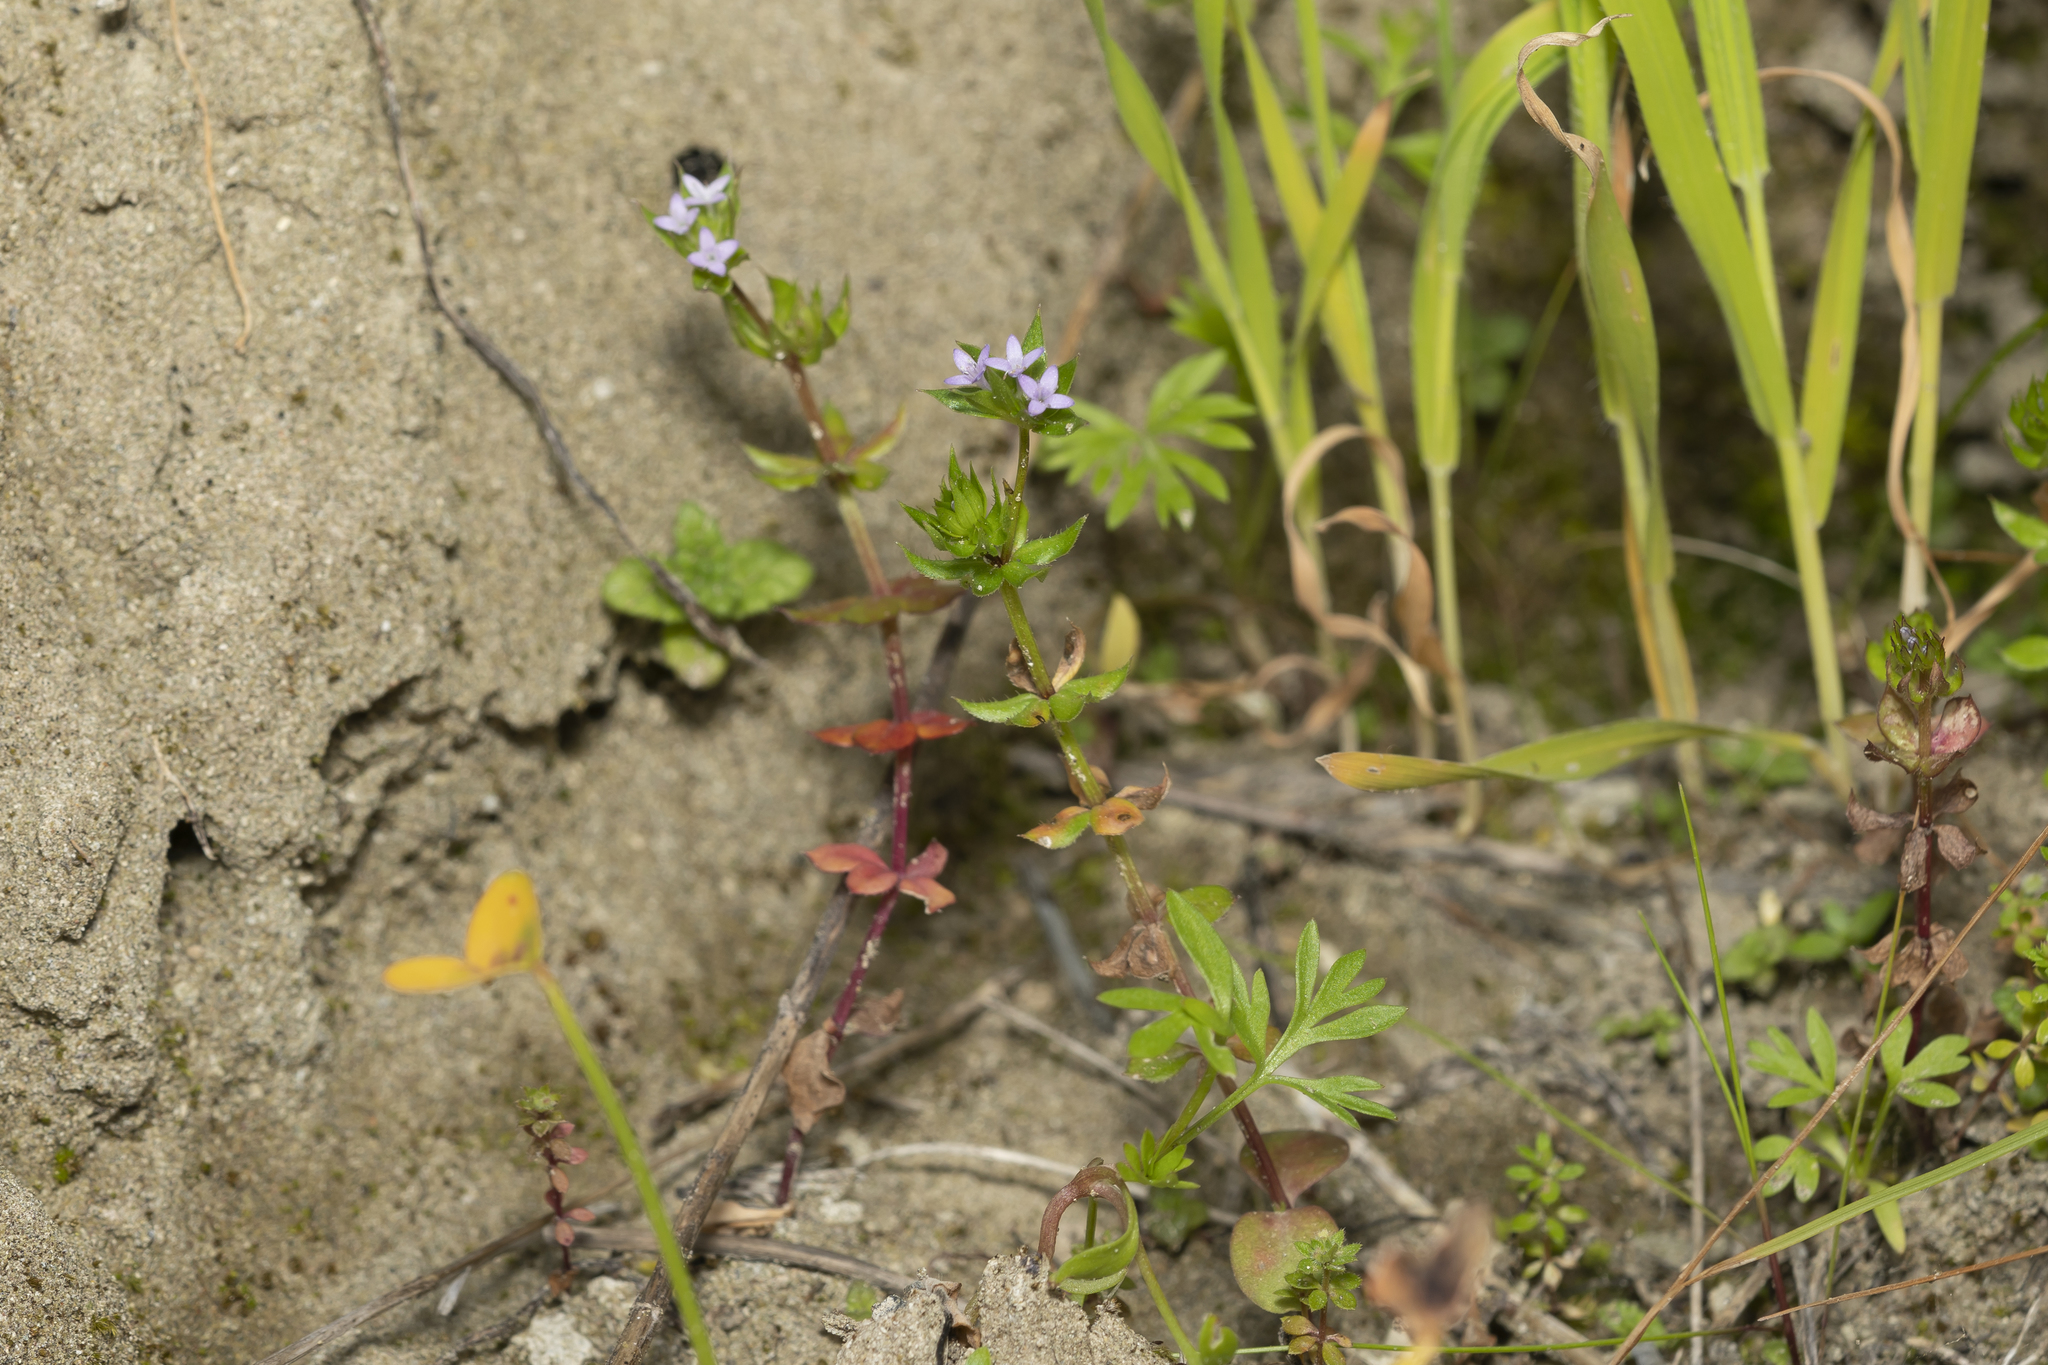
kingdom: Plantae
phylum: Tracheophyta
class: Magnoliopsida
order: Gentianales
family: Rubiaceae
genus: Sherardia
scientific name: Sherardia arvensis
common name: Field madder
